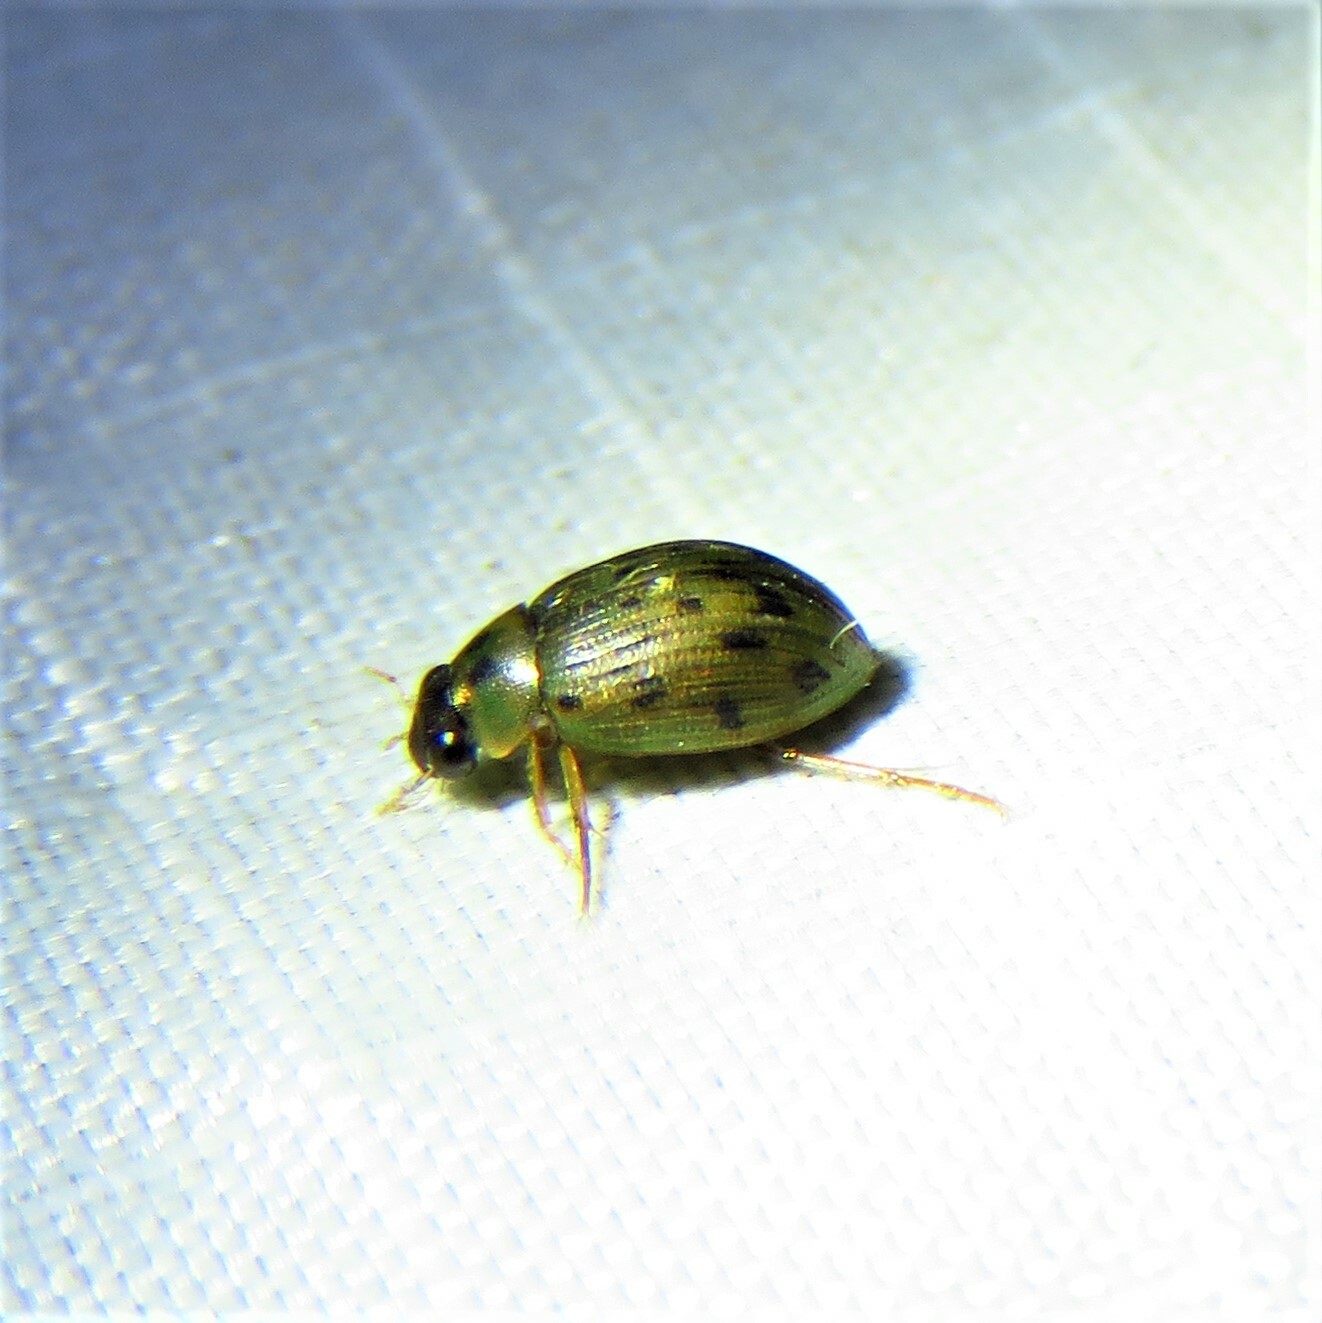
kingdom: Animalia
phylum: Arthropoda
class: Insecta
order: Coleoptera
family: Hydrophilidae
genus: Berosus
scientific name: Berosus
